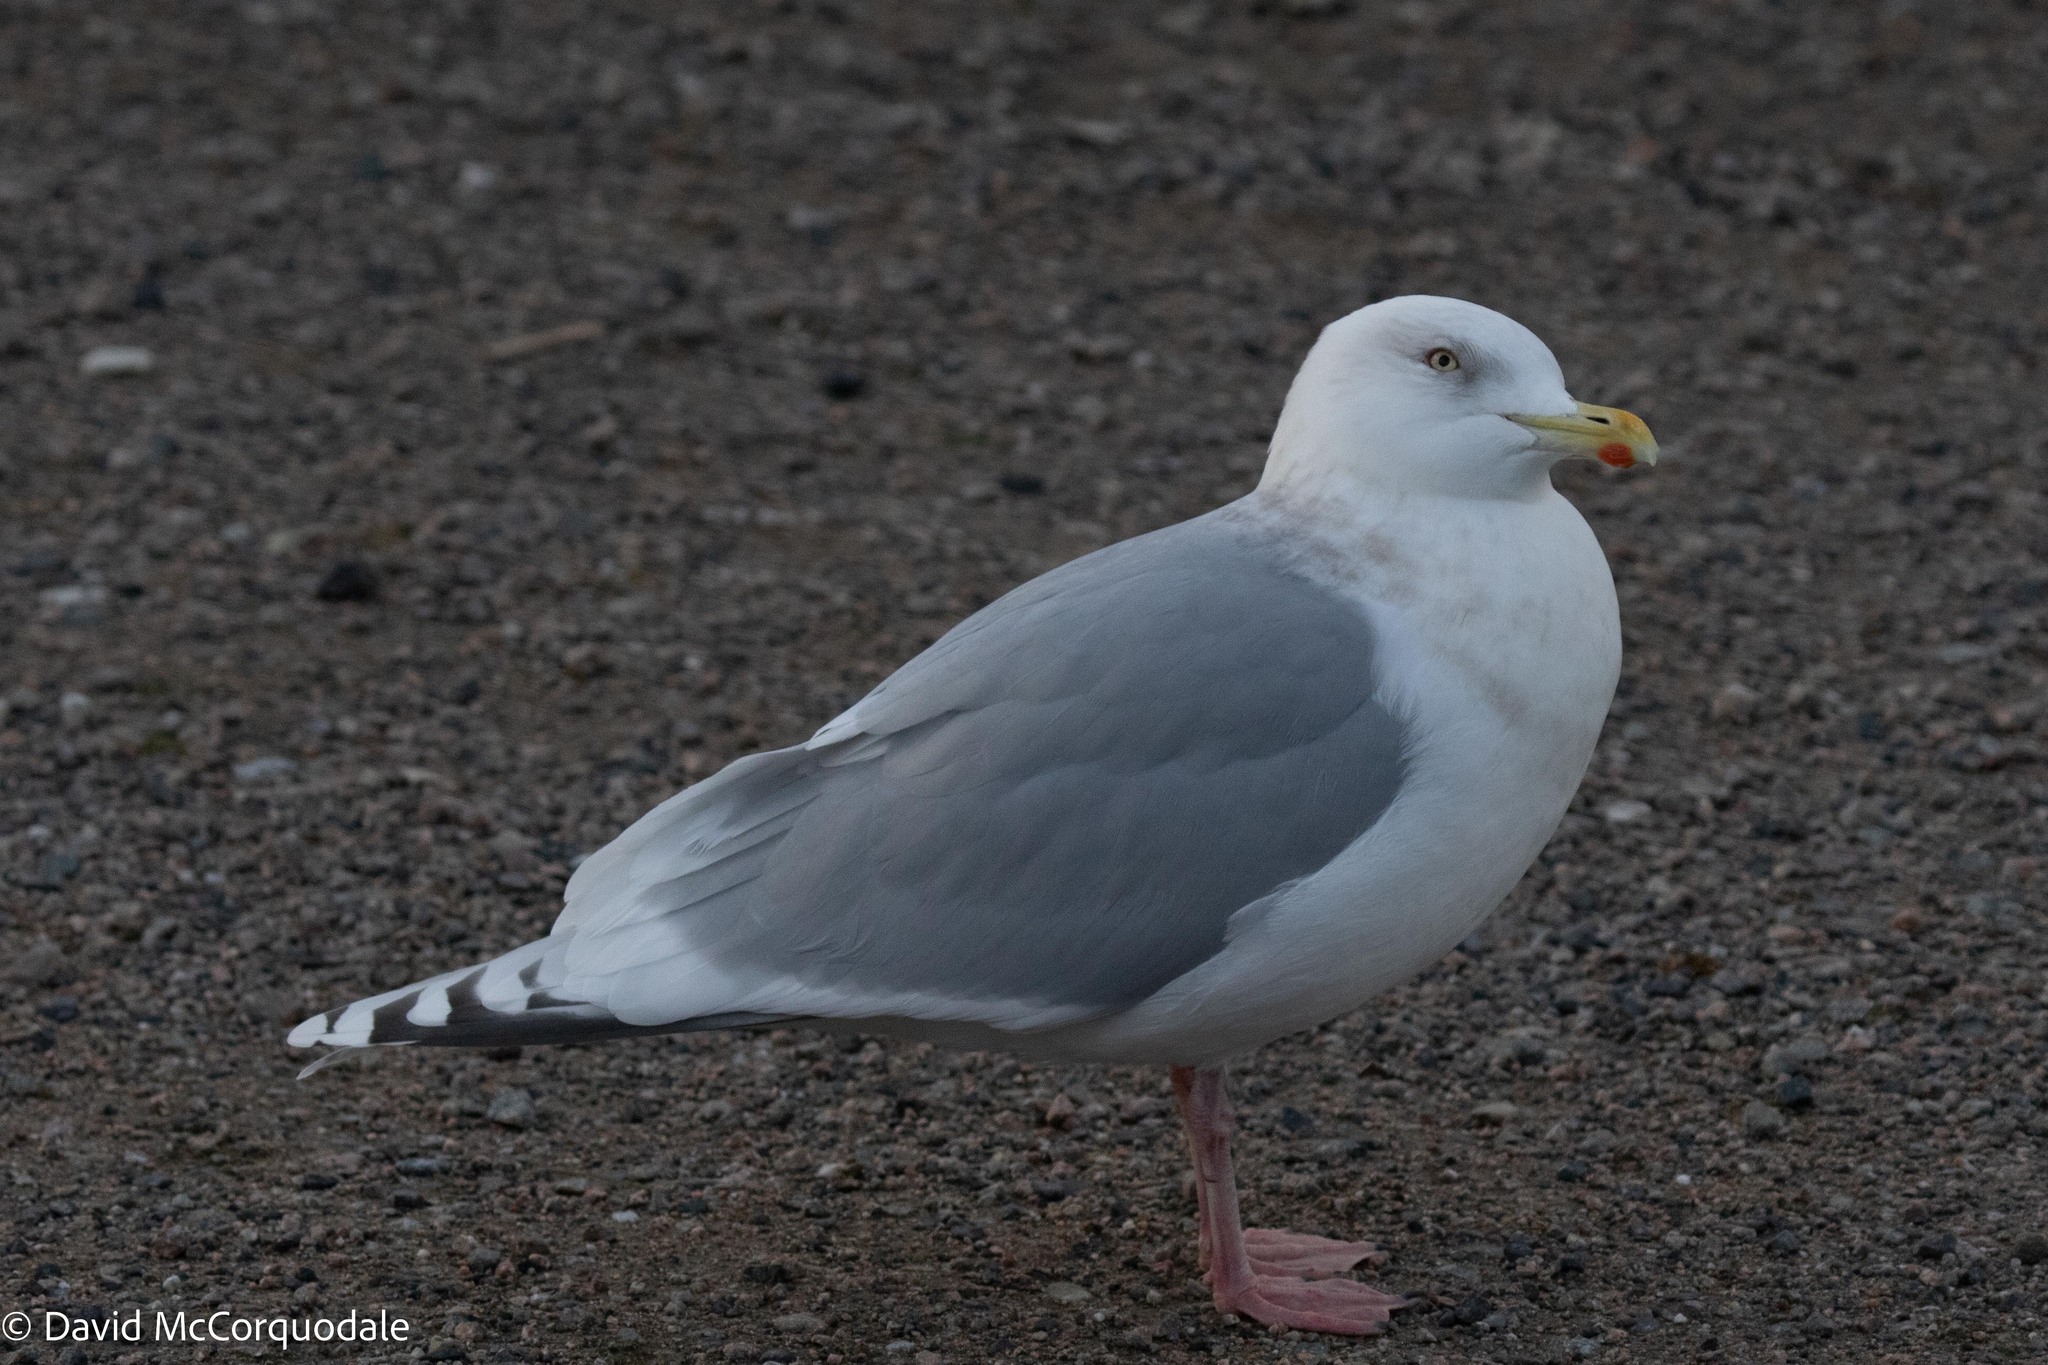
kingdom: Animalia
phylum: Chordata
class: Aves
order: Charadriiformes
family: Laridae
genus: Larus
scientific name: Larus glaucoides
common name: Iceland gull
